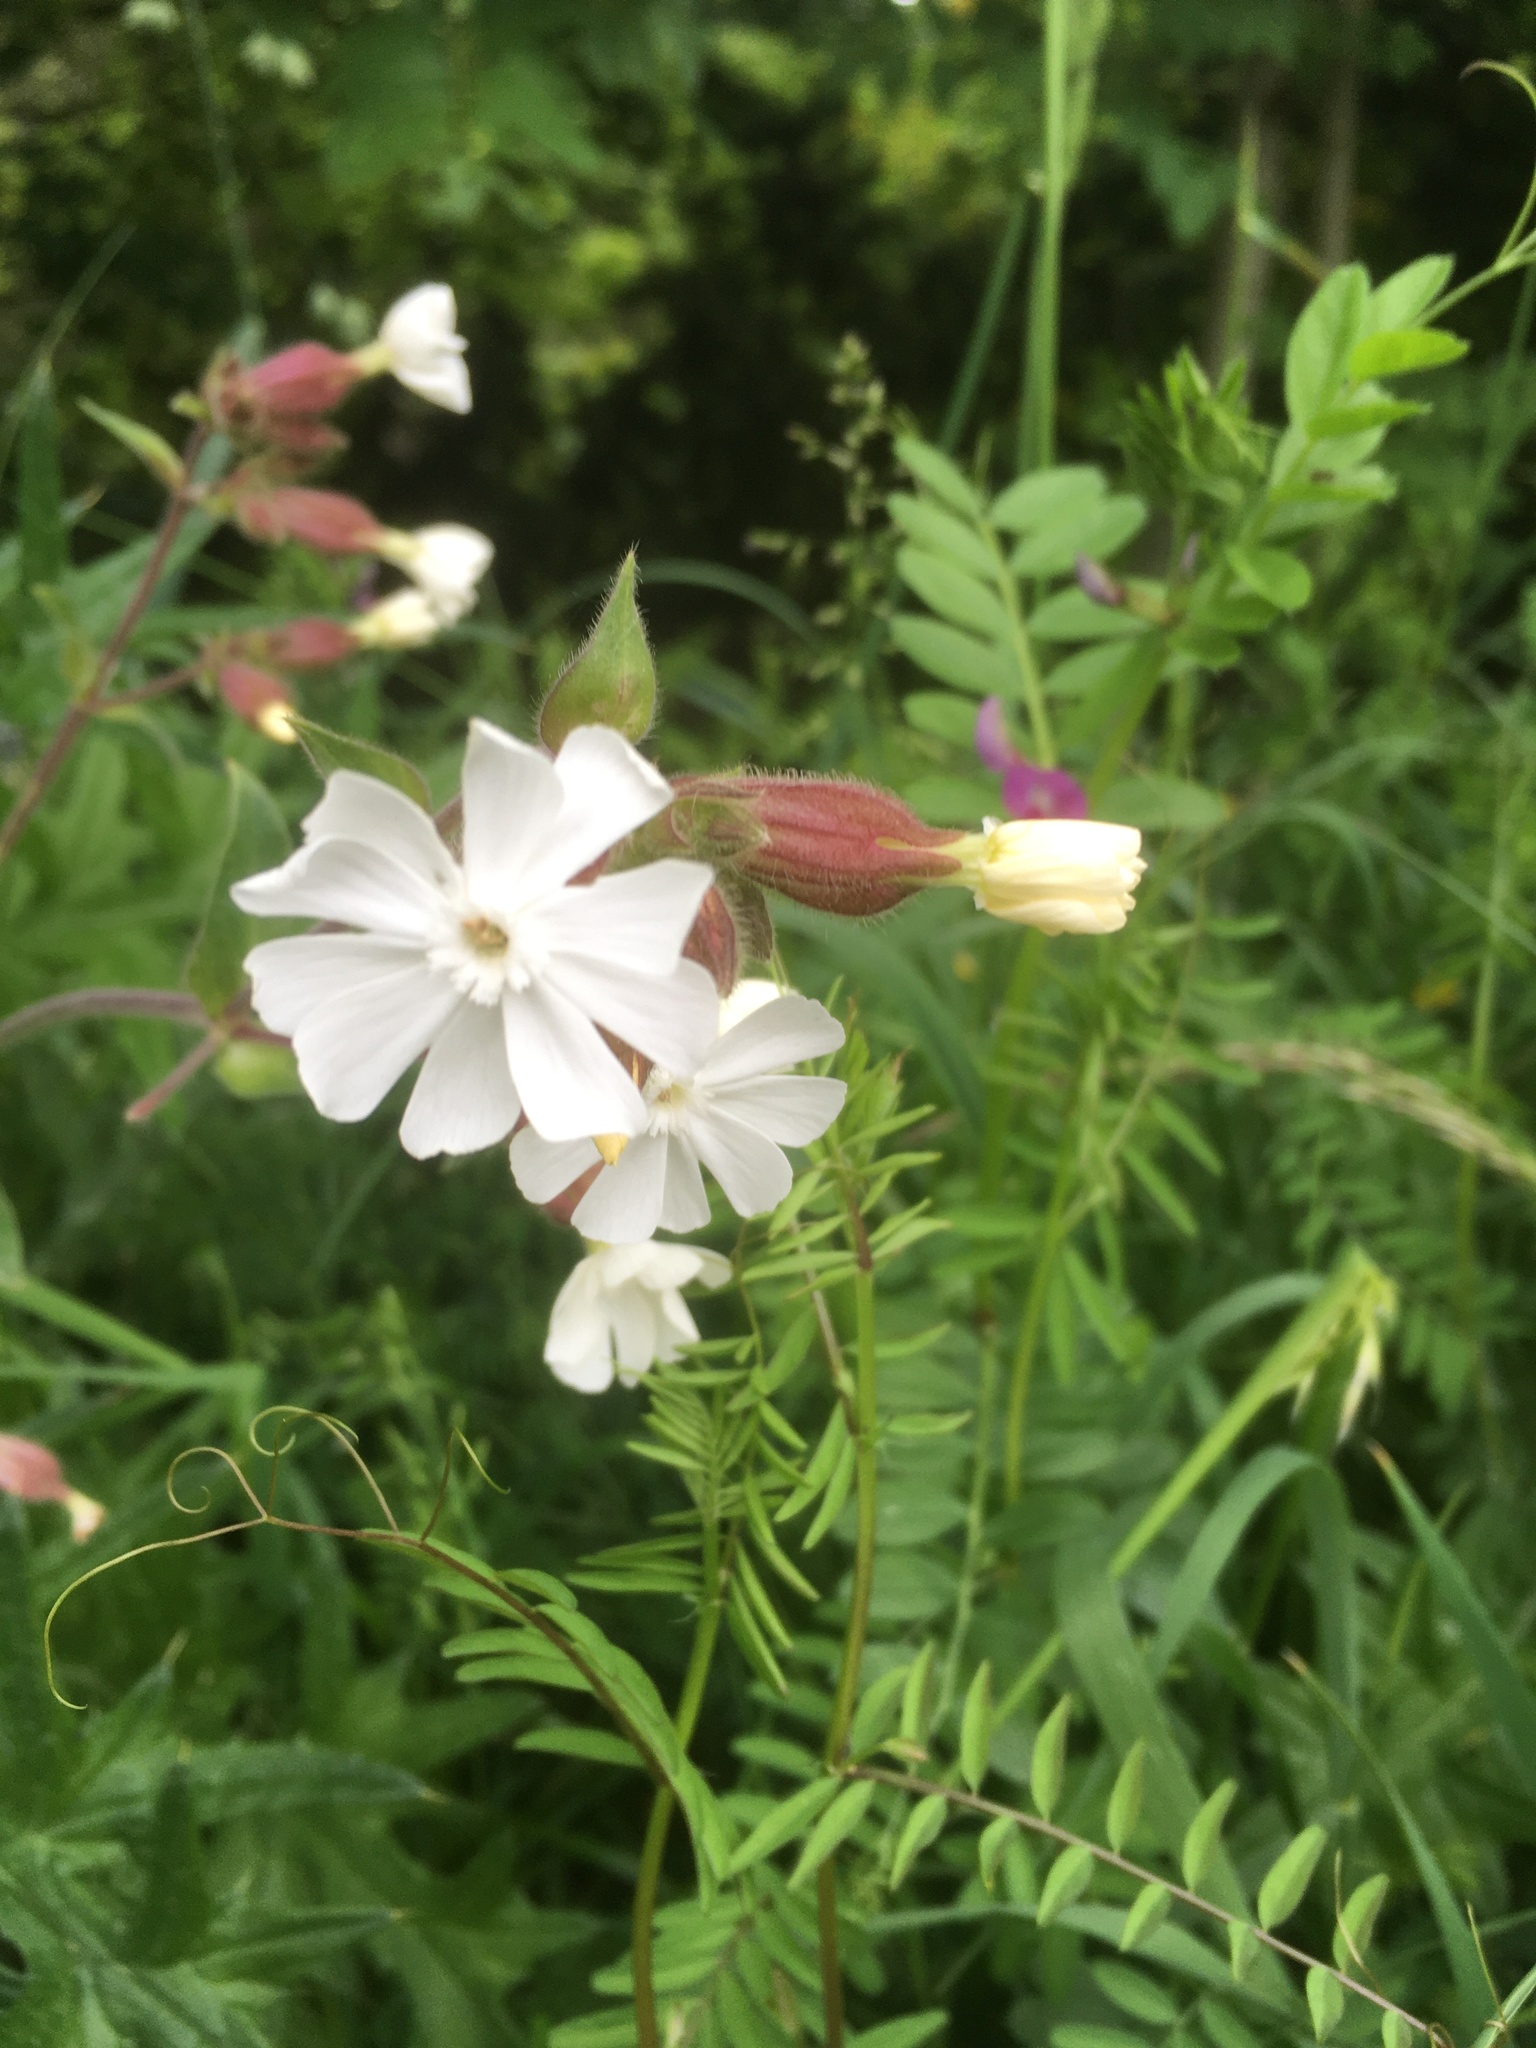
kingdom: Plantae
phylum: Tracheophyta
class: Magnoliopsida
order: Caryophyllales
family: Caryophyllaceae
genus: Silene
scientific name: Silene latifolia
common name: White campion
